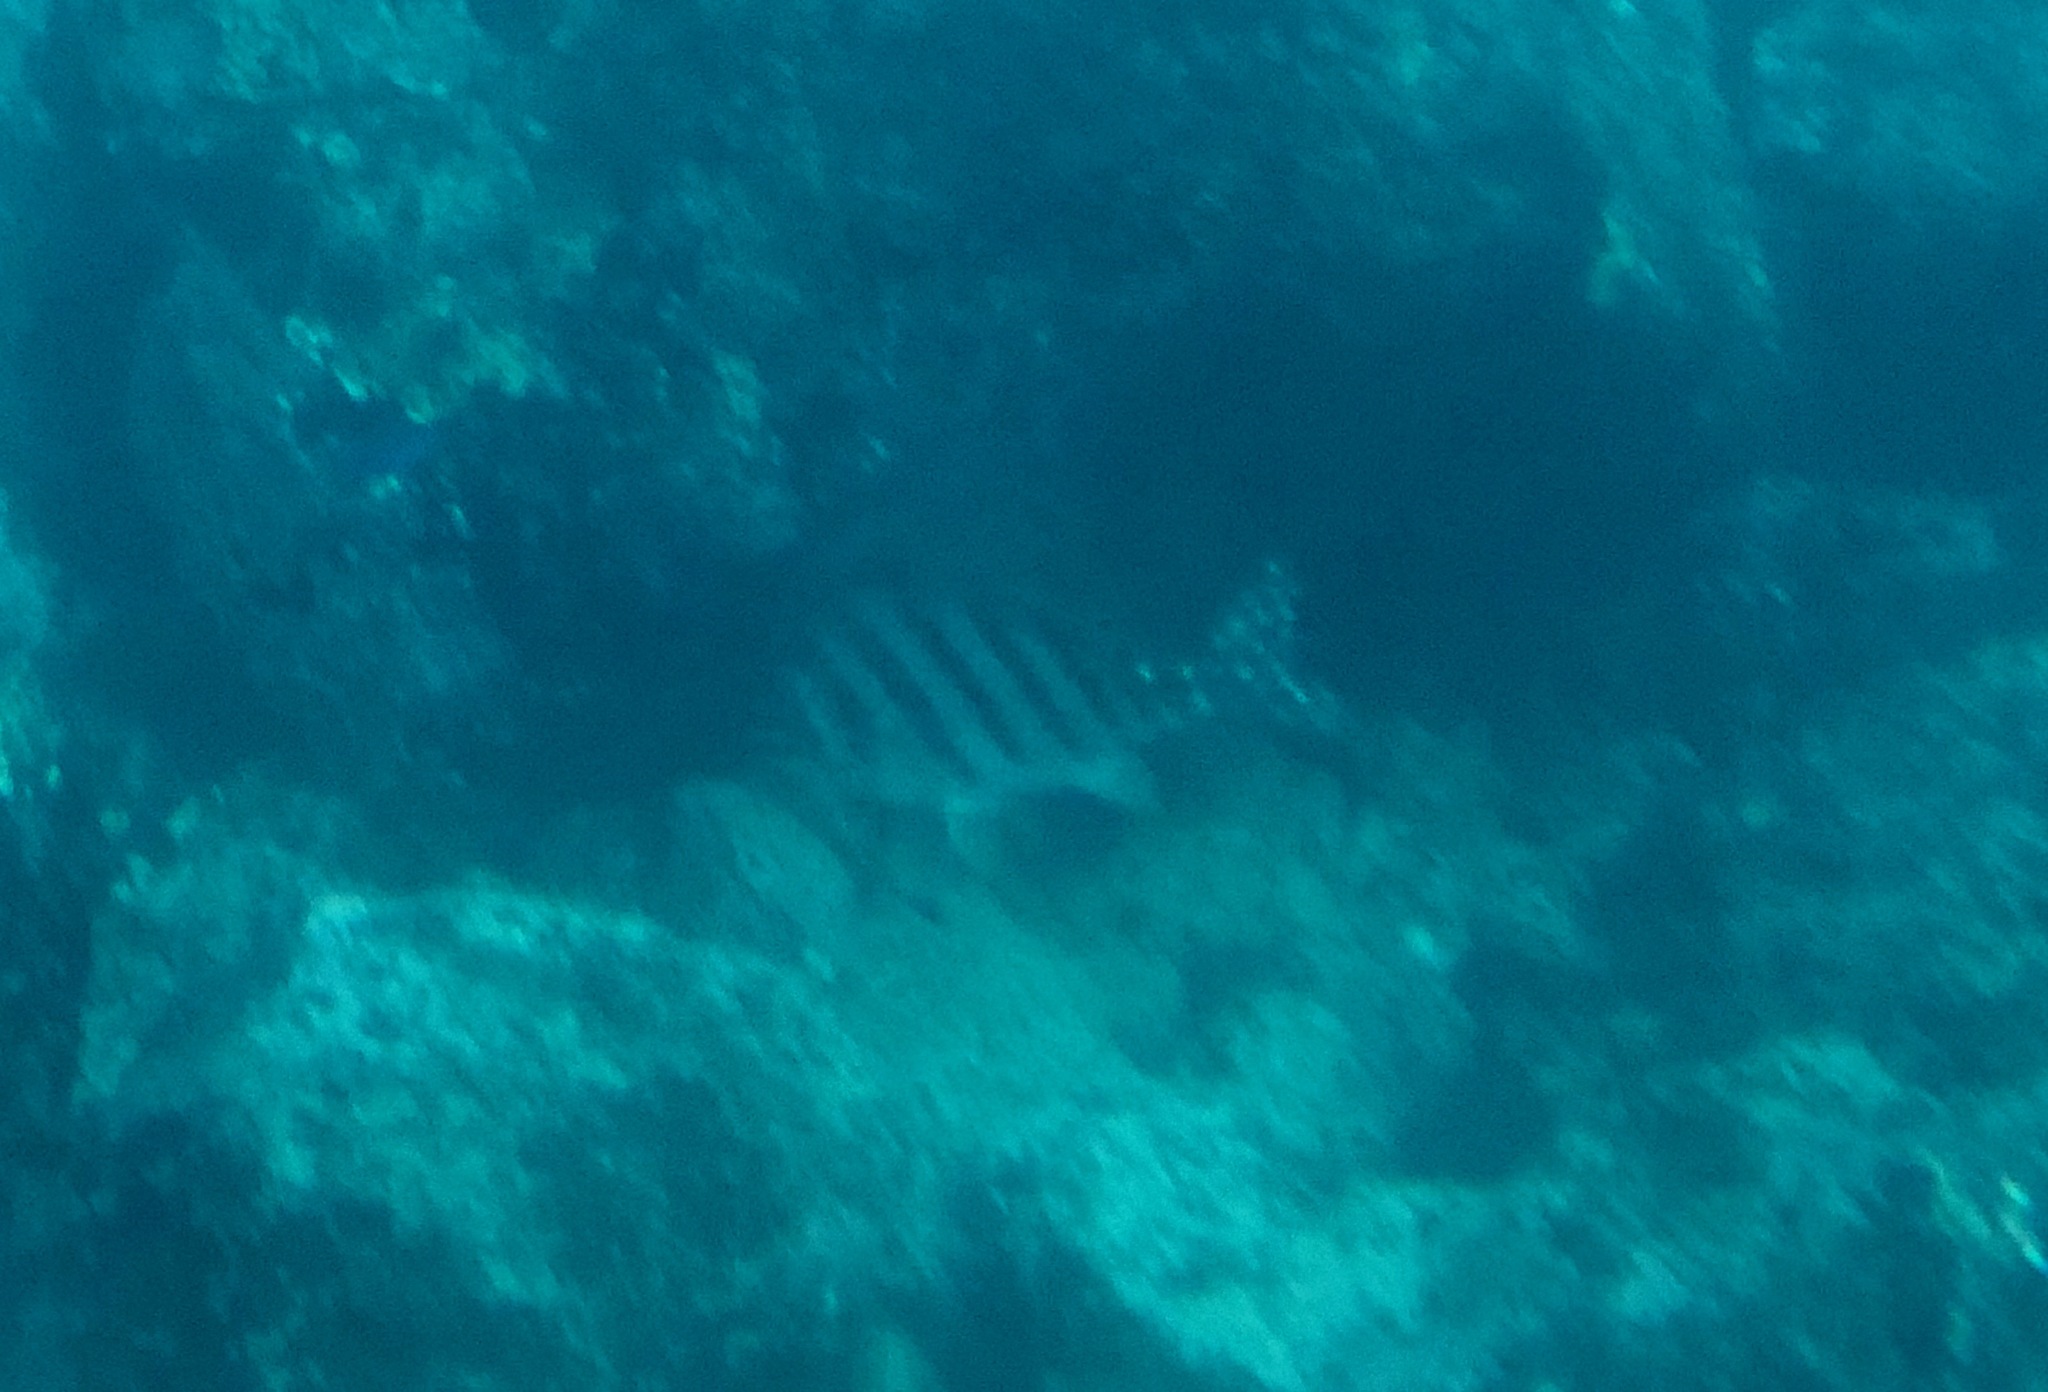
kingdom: Animalia
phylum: Chordata
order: Perciformes
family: Cheilodactylidae
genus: Cheilodactylus
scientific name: Cheilodactylus zonatus
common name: Spottedtail morwong
